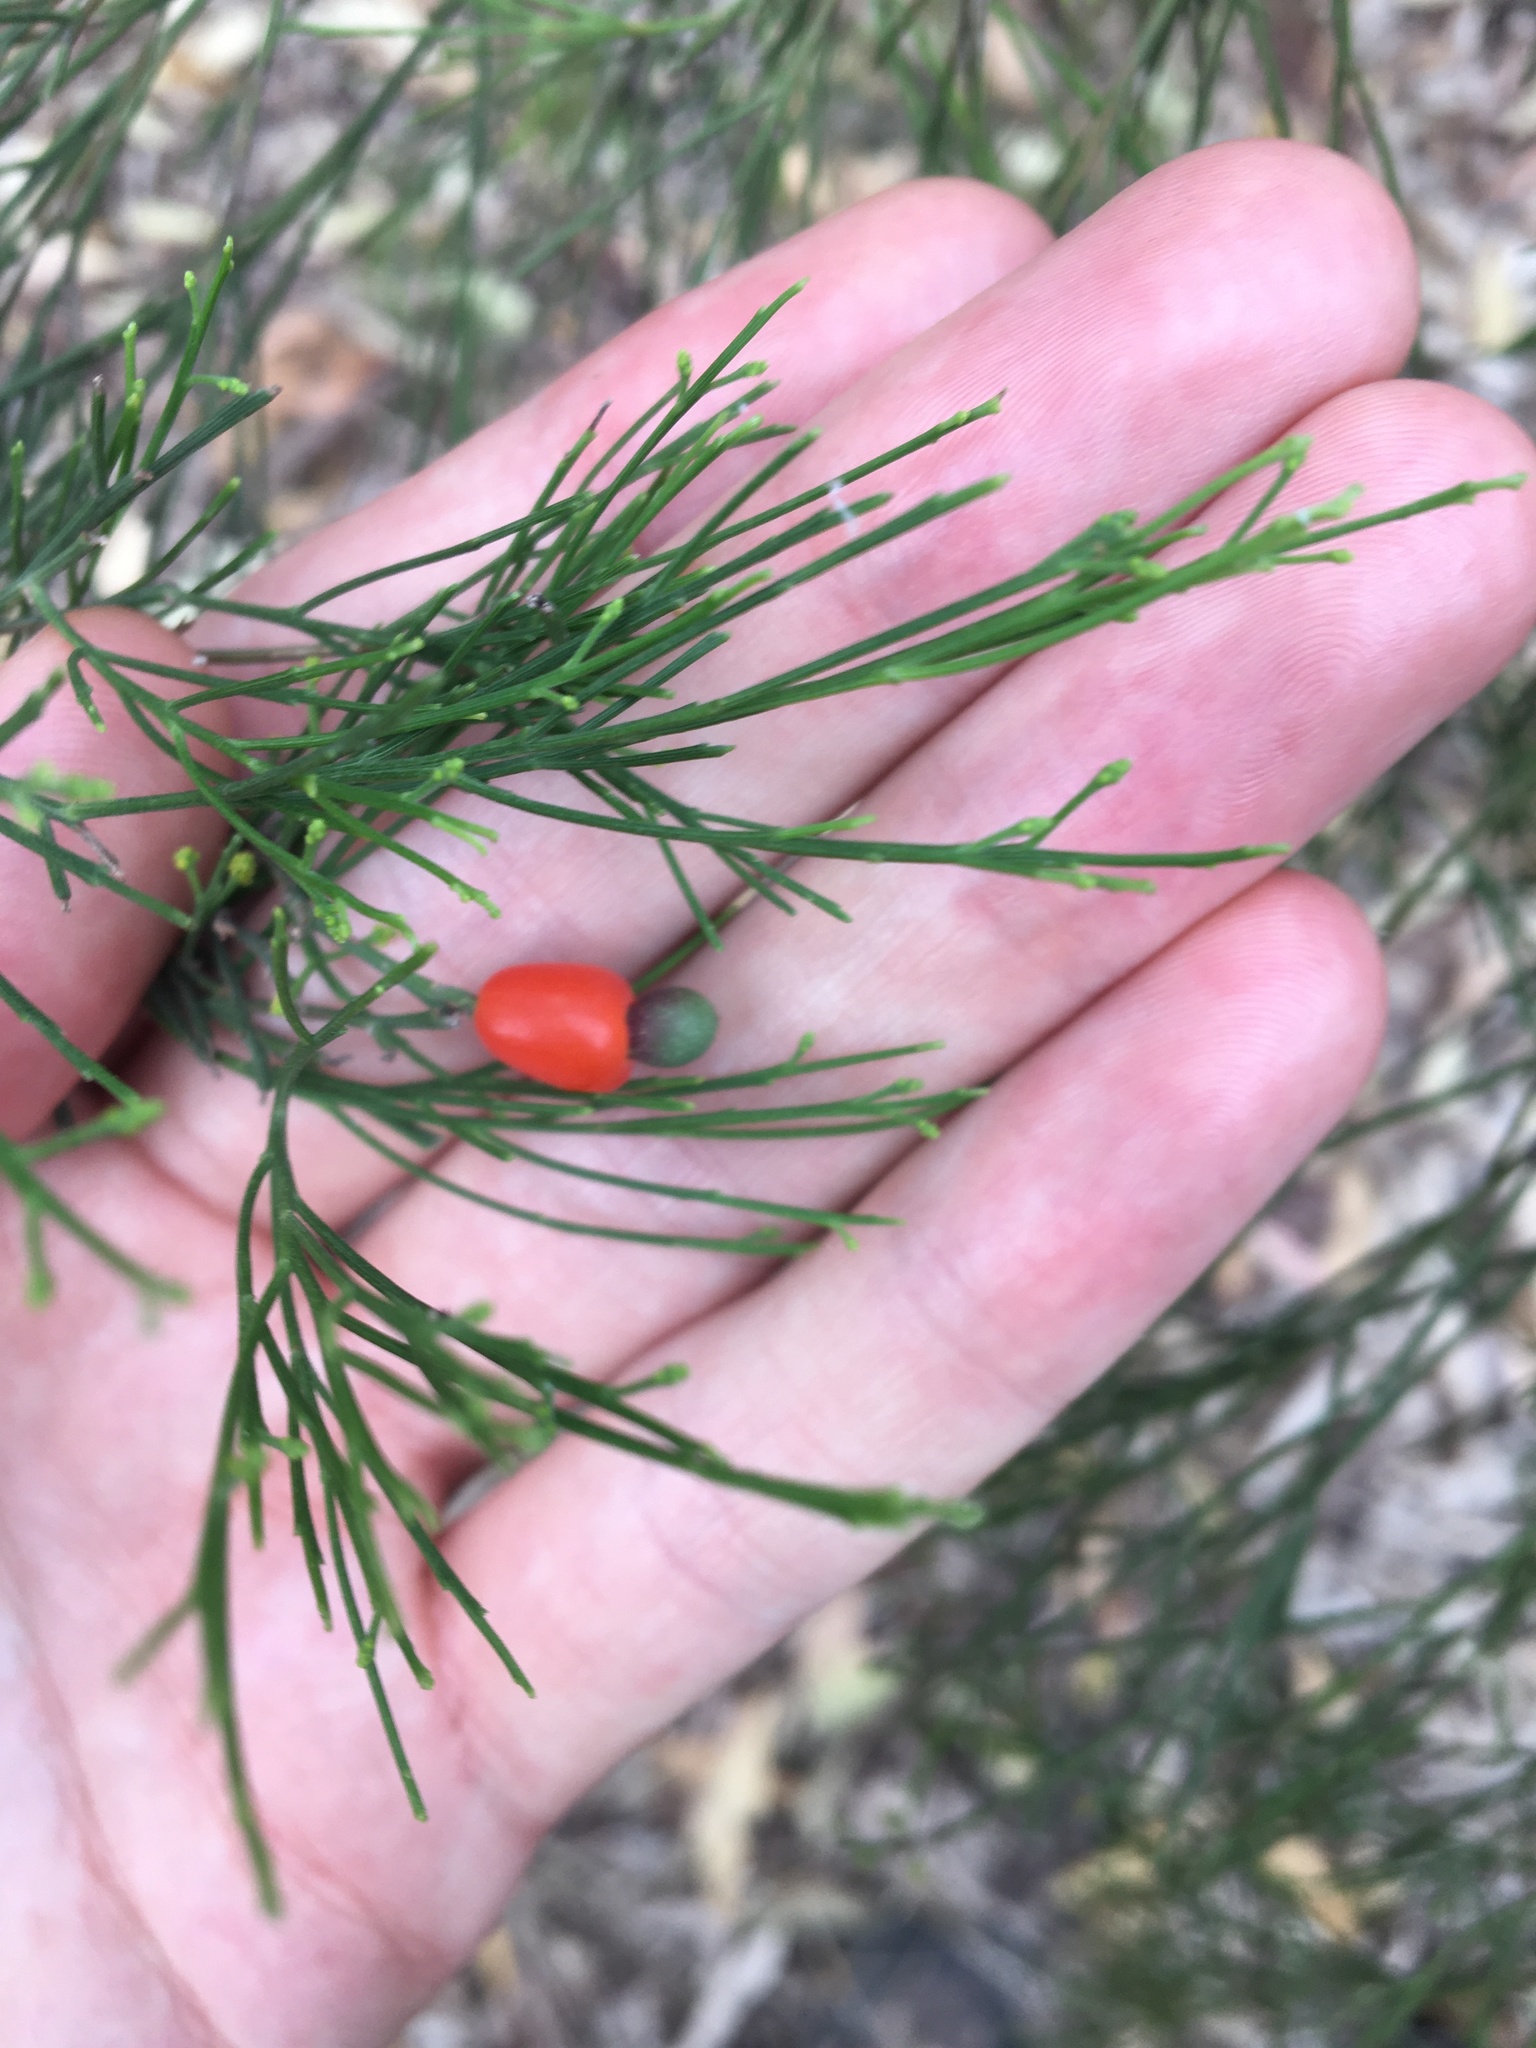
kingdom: Plantae
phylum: Tracheophyta
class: Magnoliopsida
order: Santalales
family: Santalaceae
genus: Exocarpos
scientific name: Exocarpos cupressiformis
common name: Cherry ballart
